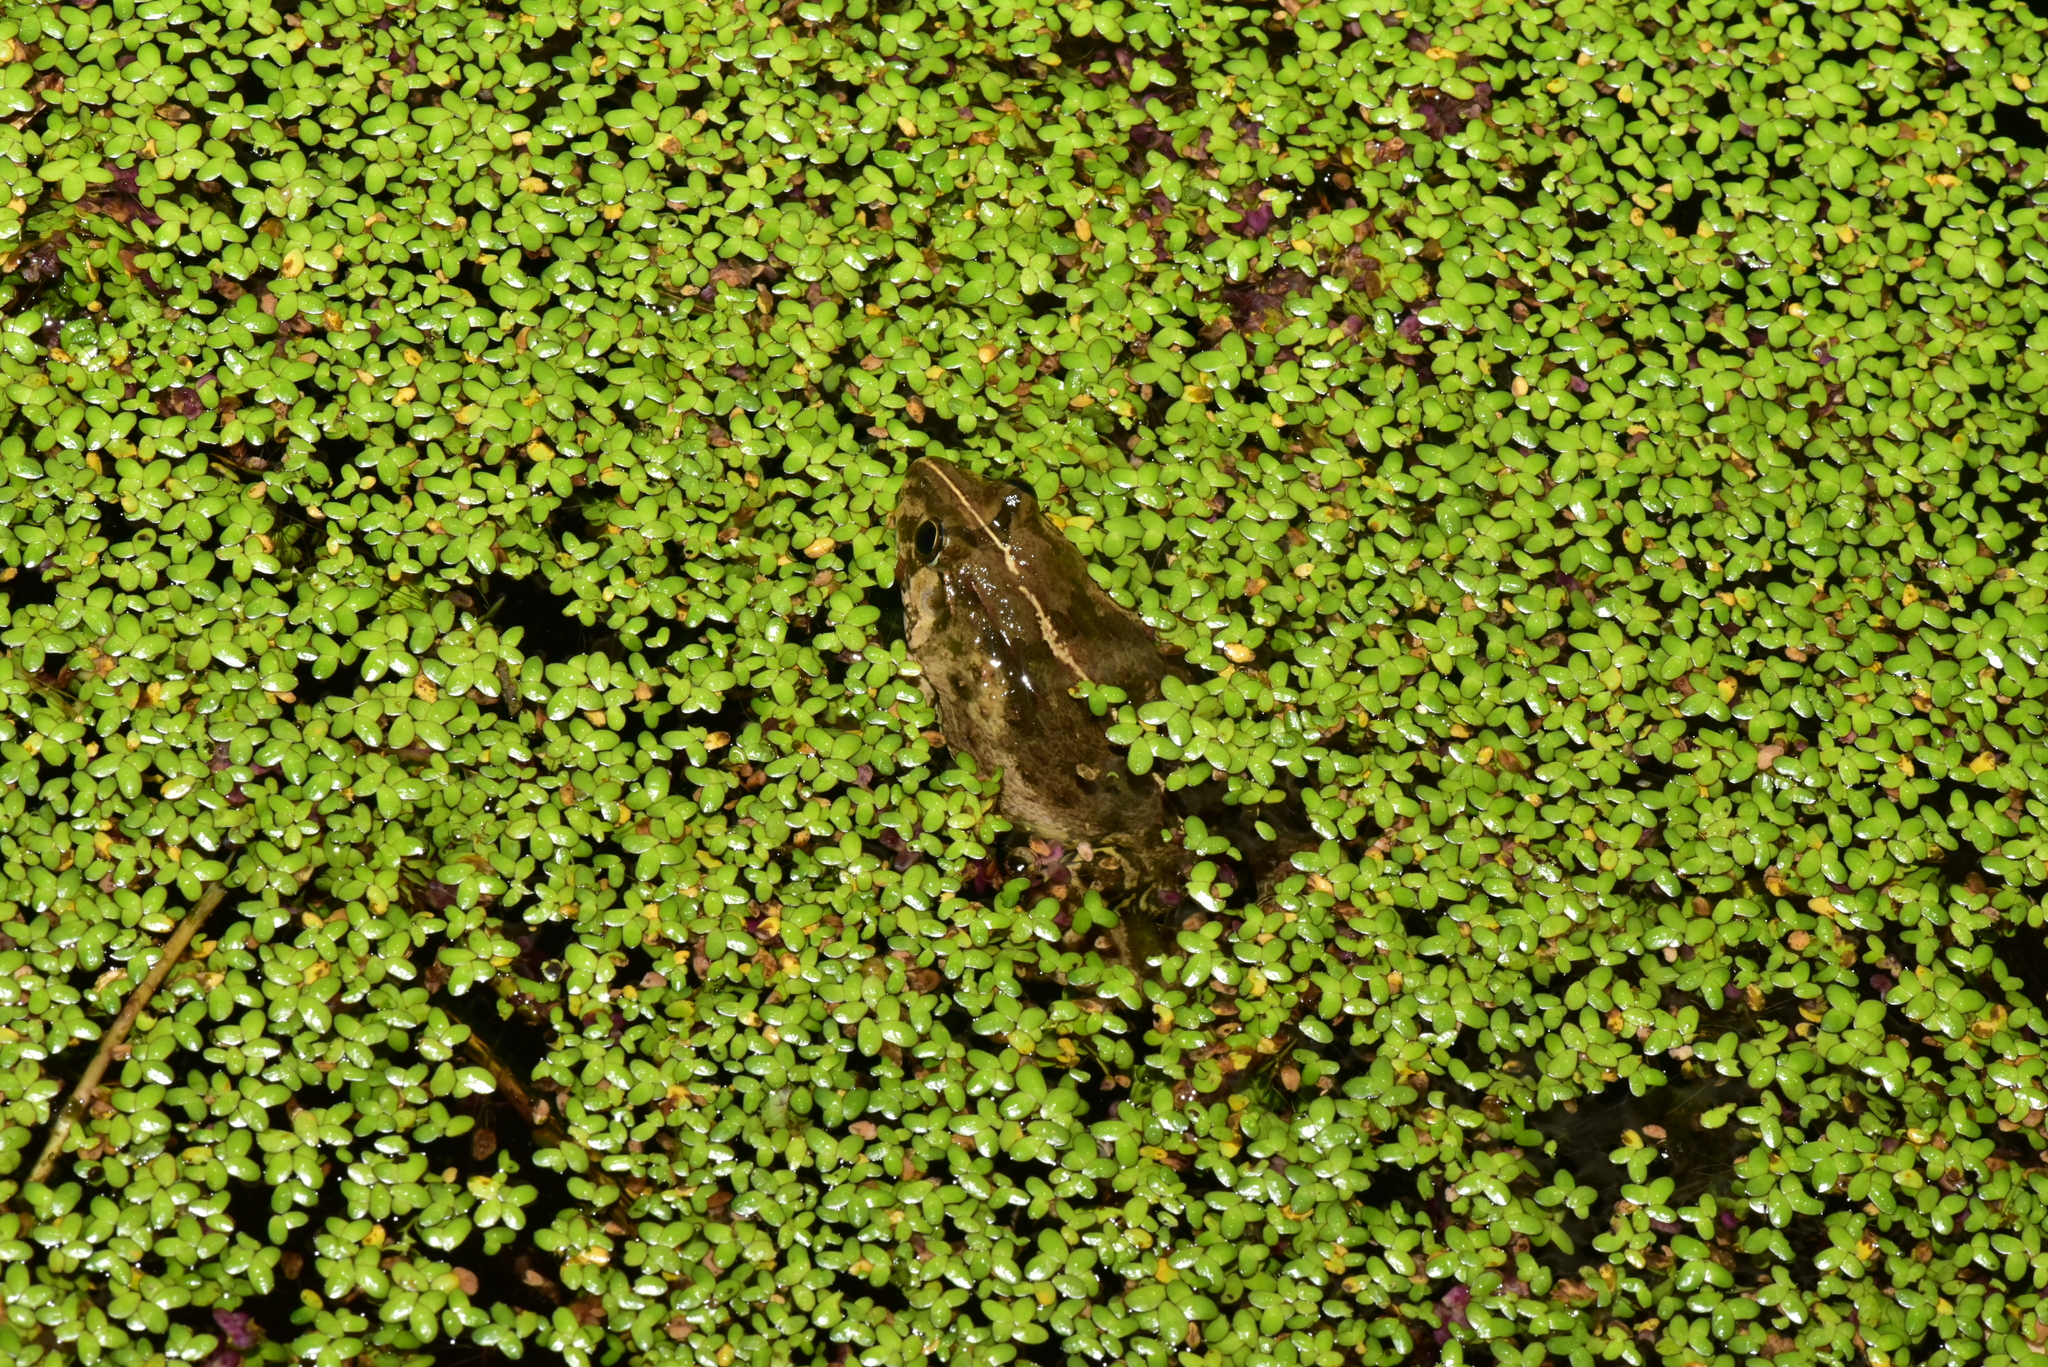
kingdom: Animalia
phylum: Chordata
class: Amphibia
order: Anura
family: Dicroglossidae
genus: Fejervarya
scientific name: Fejervarya limnocharis
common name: Asian grass frog/common pond frog/field frog/grass frog/indian rice frog
